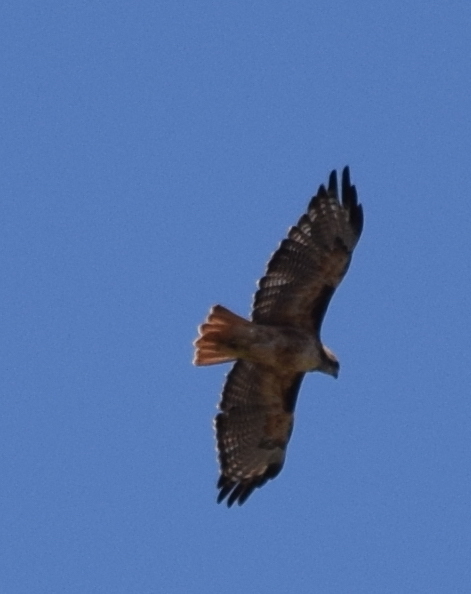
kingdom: Animalia
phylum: Chordata
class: Aves
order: Accipitriformes
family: Accipitridae
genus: Buteo
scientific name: Buteo jamaicensis
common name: Red-tailed hawk
